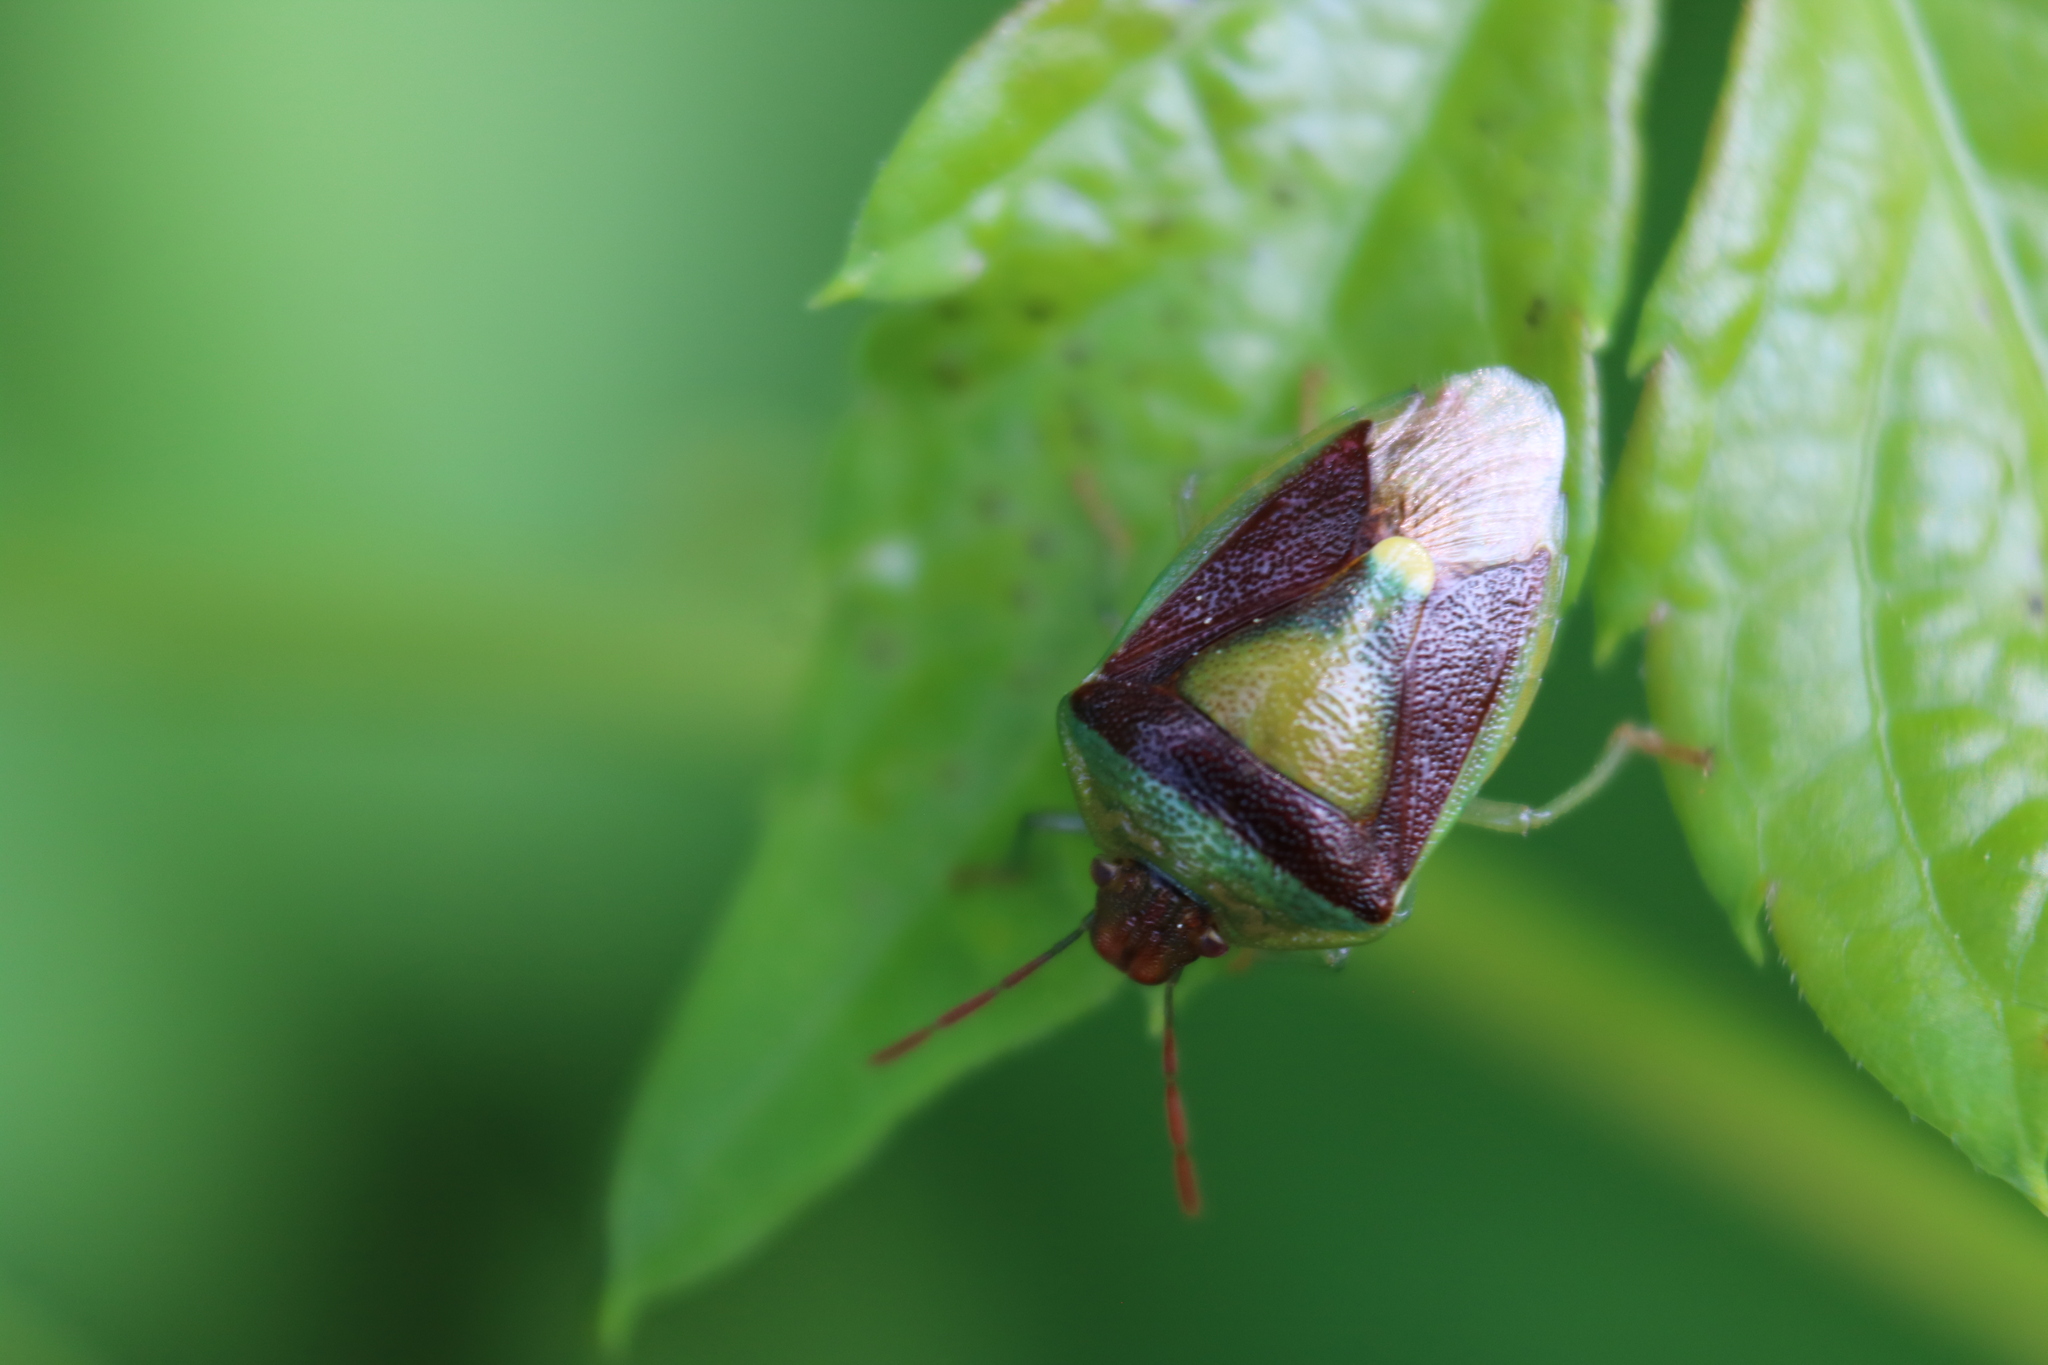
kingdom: Animalia
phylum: Arthropoda
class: Insecta
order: Hemiptera
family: Pentatomidae
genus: Banasa
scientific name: Banasa dimidiata
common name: Green burgundy stink bug
